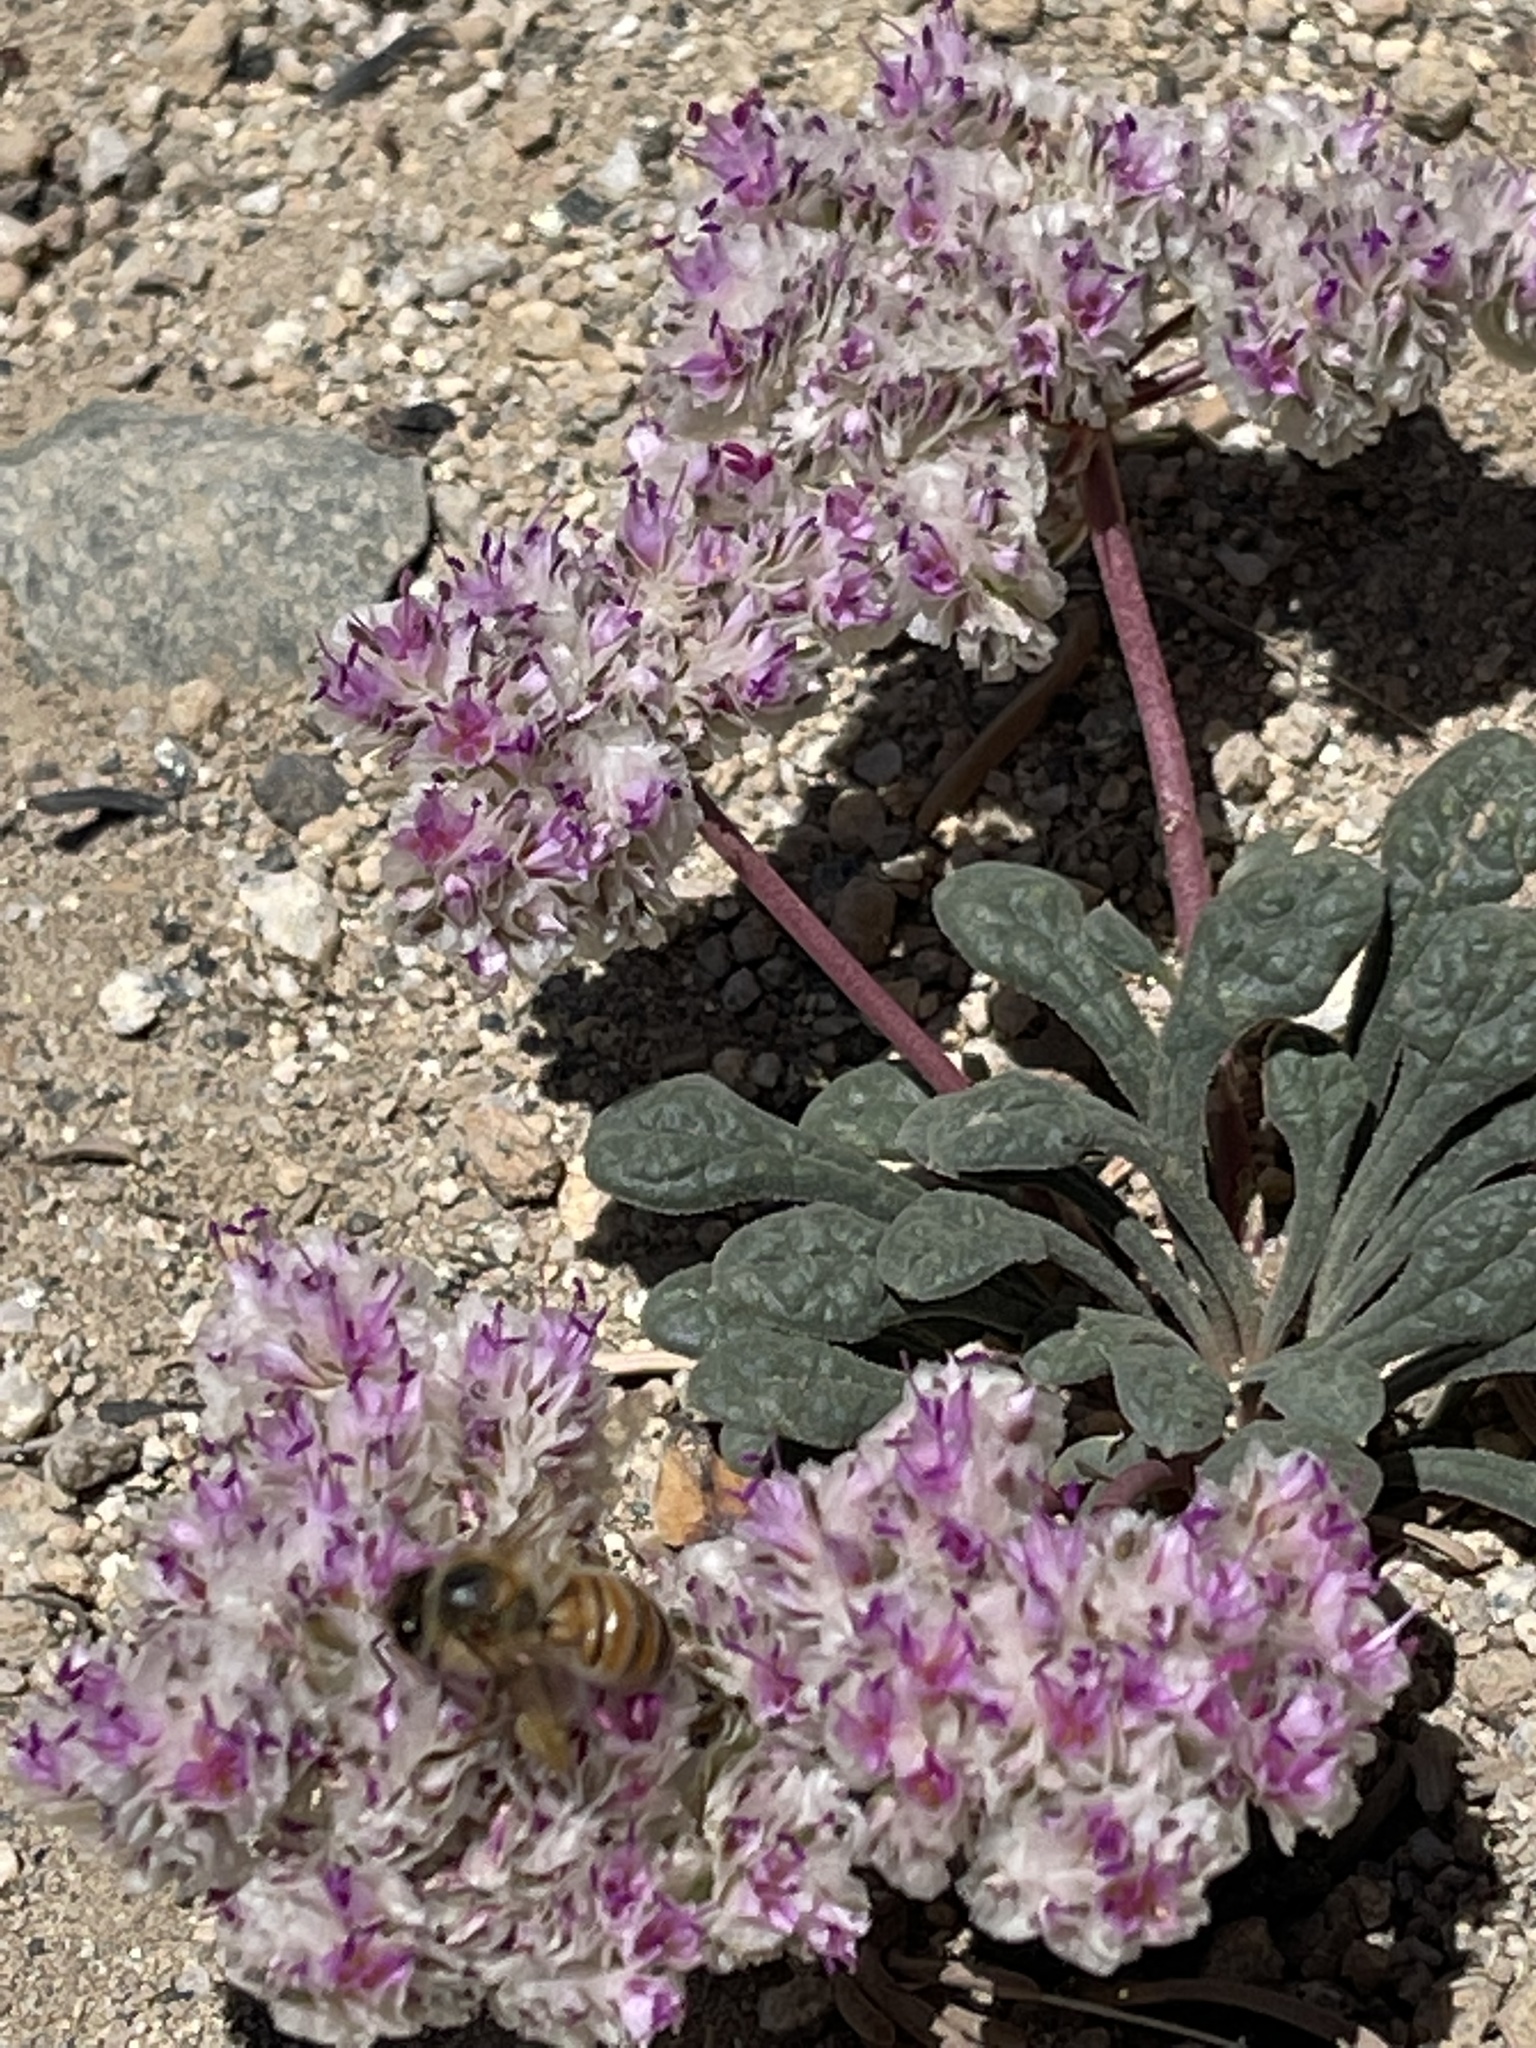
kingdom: Plantae
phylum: Tracheophyta
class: Magnoliopsida
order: Caryophyllales
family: Montiaceae
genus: Calyptridium
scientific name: Calyptridium monospermum
